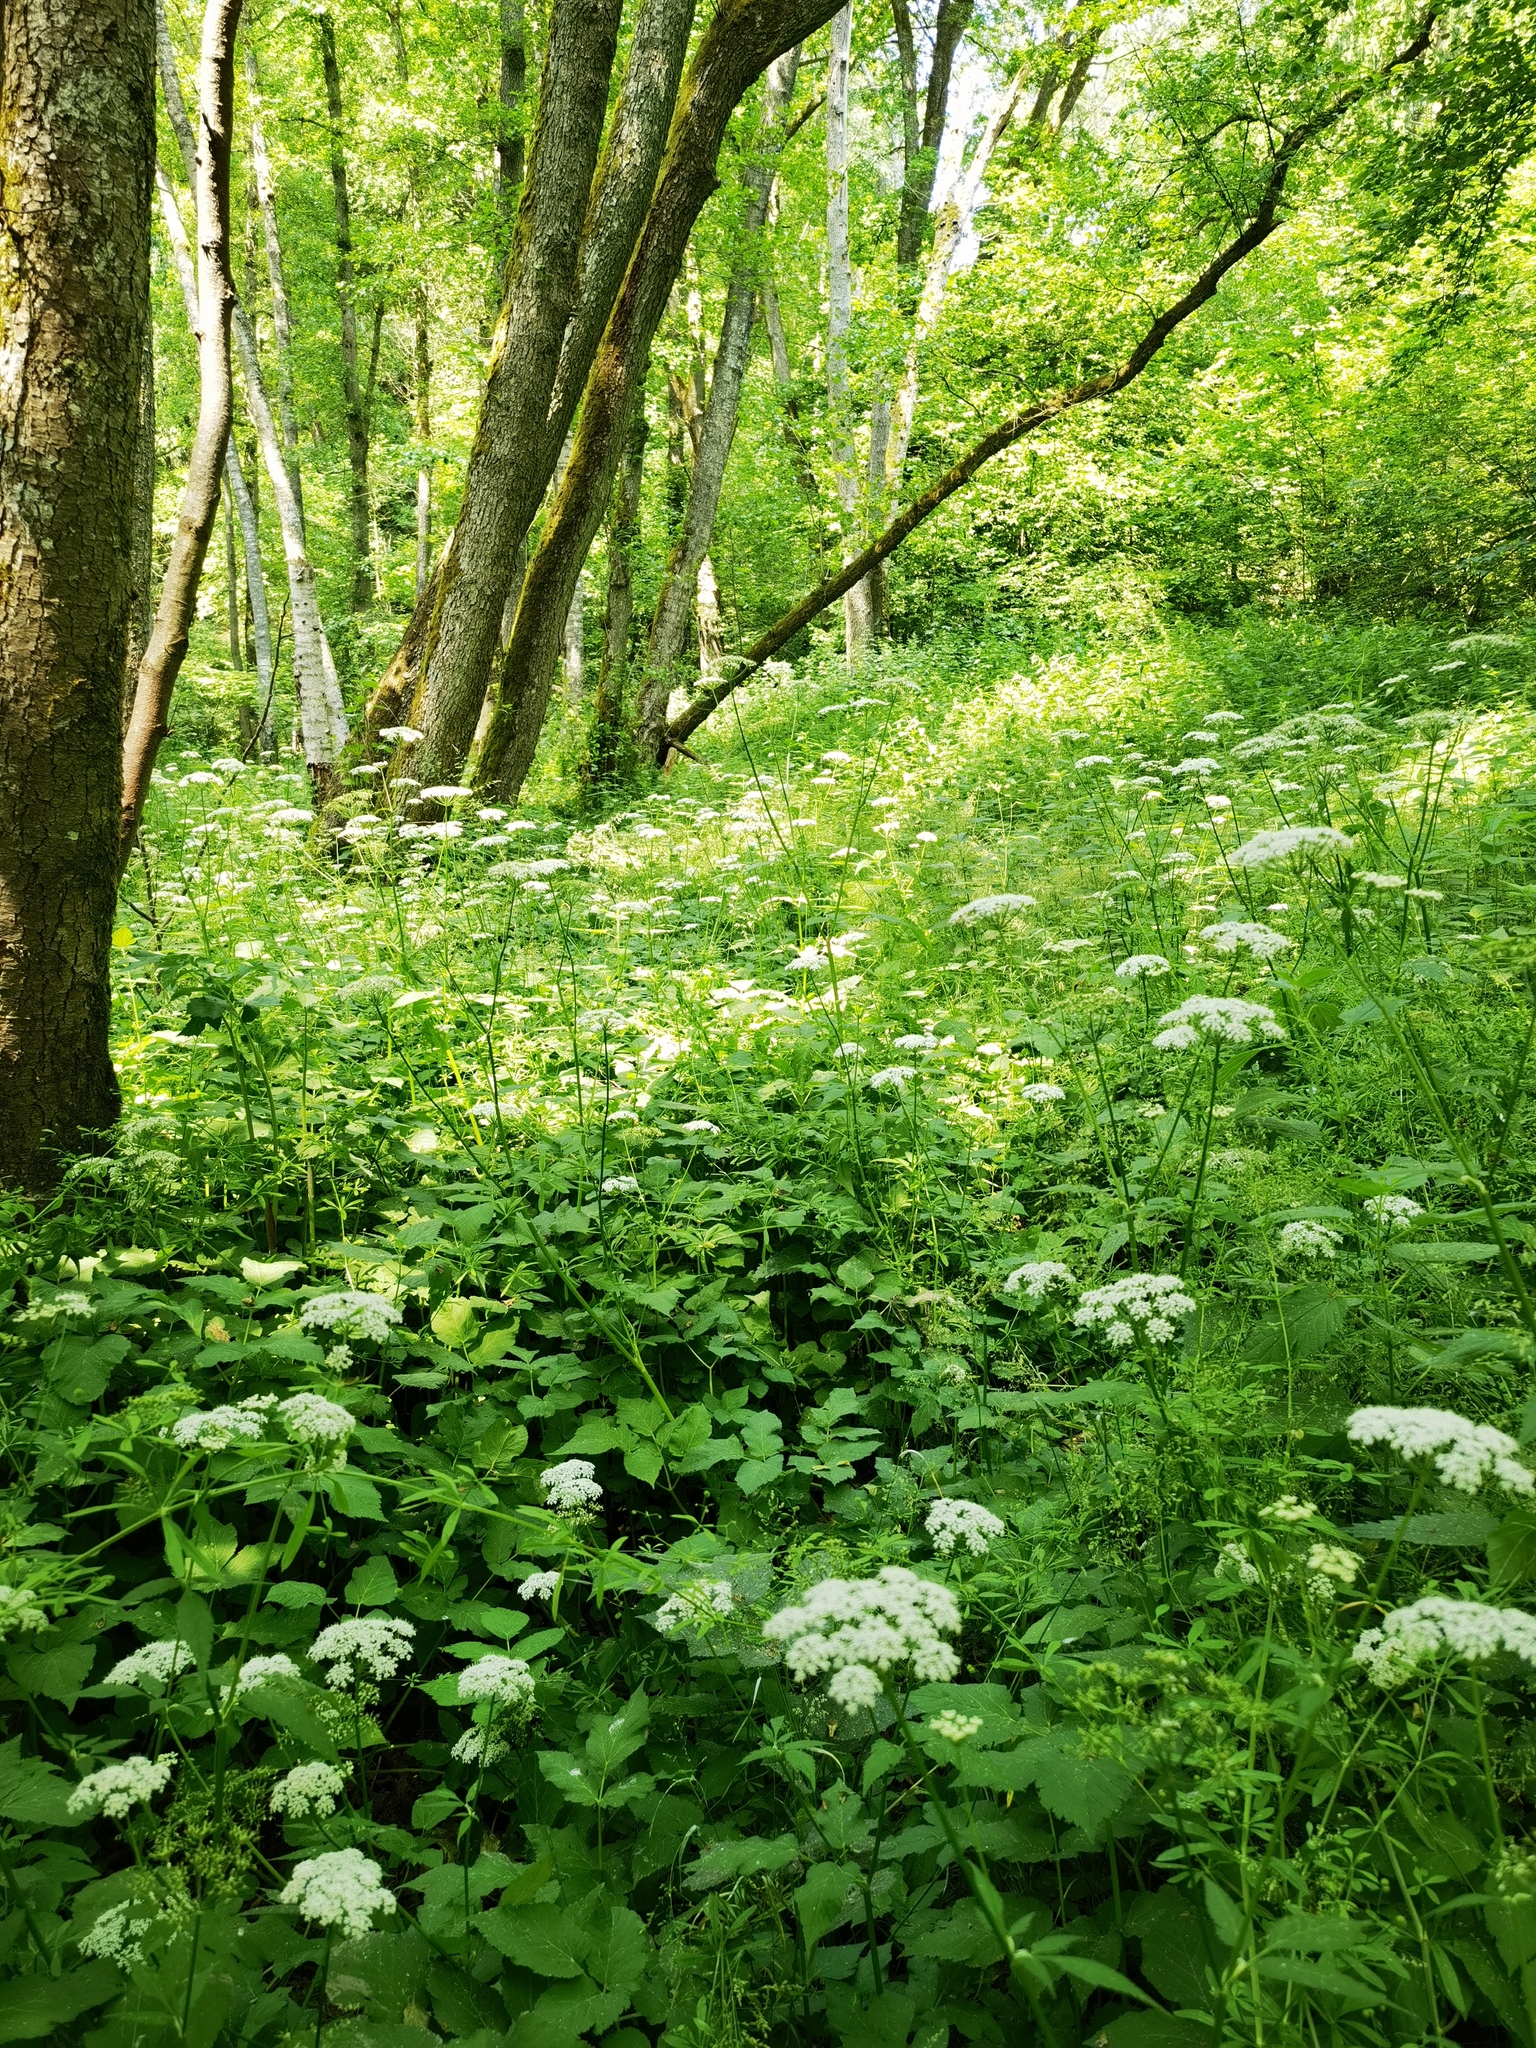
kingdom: Plantae
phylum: Tracheophyta
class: Magnoliopsida
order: Apiales
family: Apiaceae
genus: Aegopodium
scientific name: Aegopodium podagraria
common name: Ground-elder
